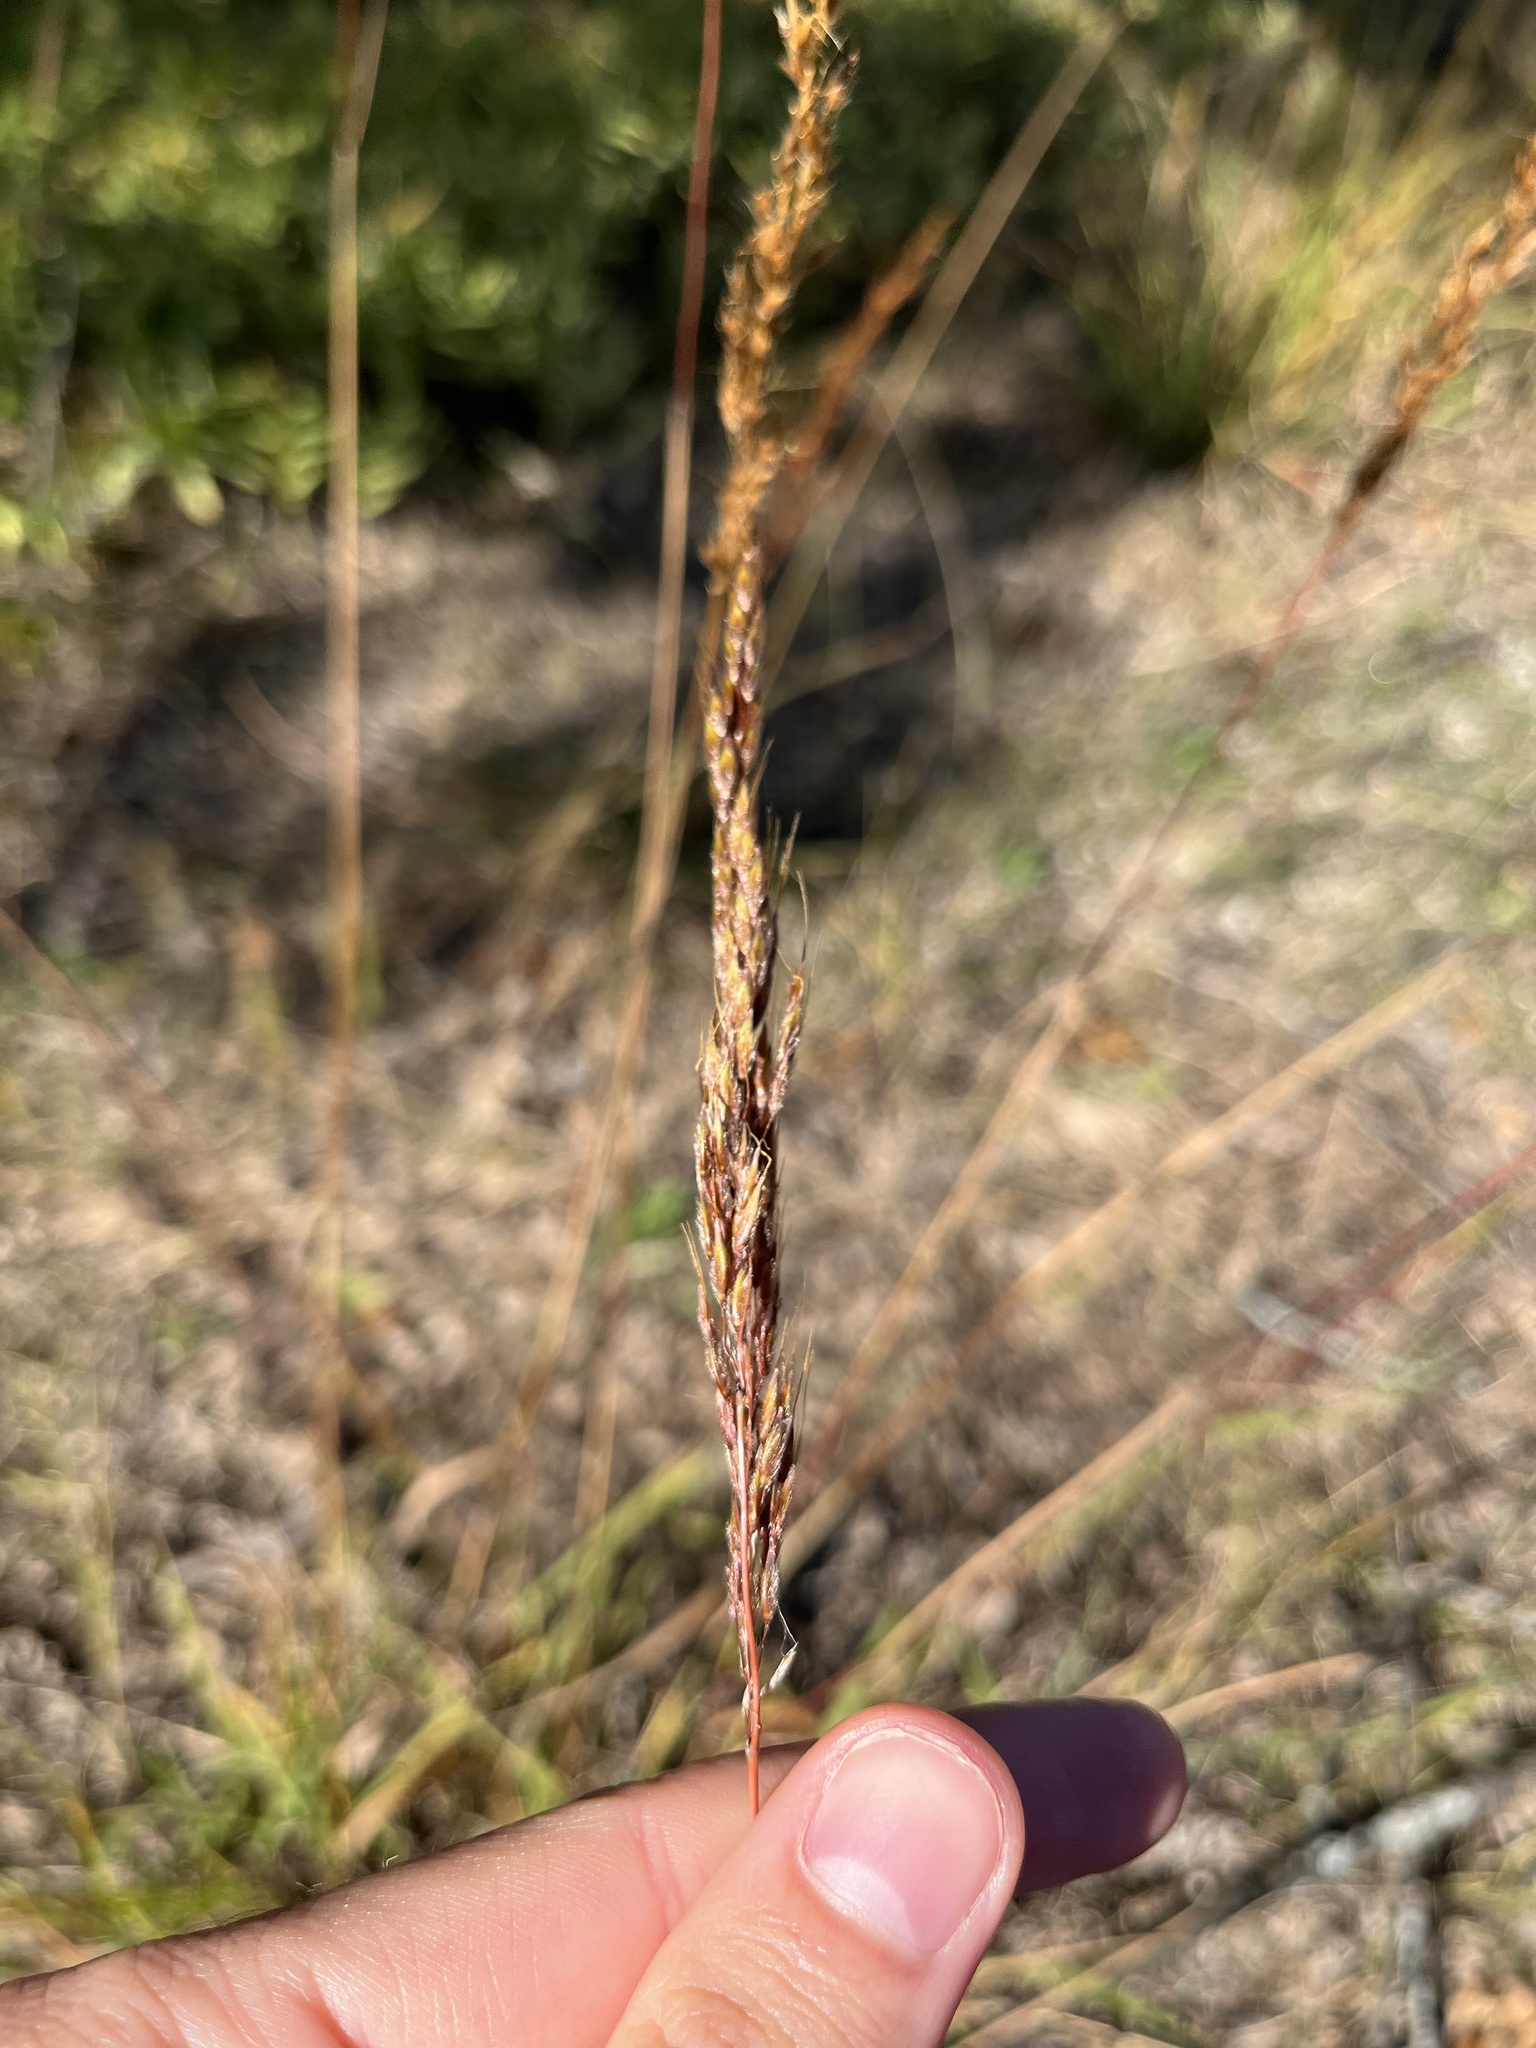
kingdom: Plantae
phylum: Tracheophyta
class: Liliopsida
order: Poales
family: Poaceae
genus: Sorghastrum
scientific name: Sorghastrum nutans
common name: Indian grass
